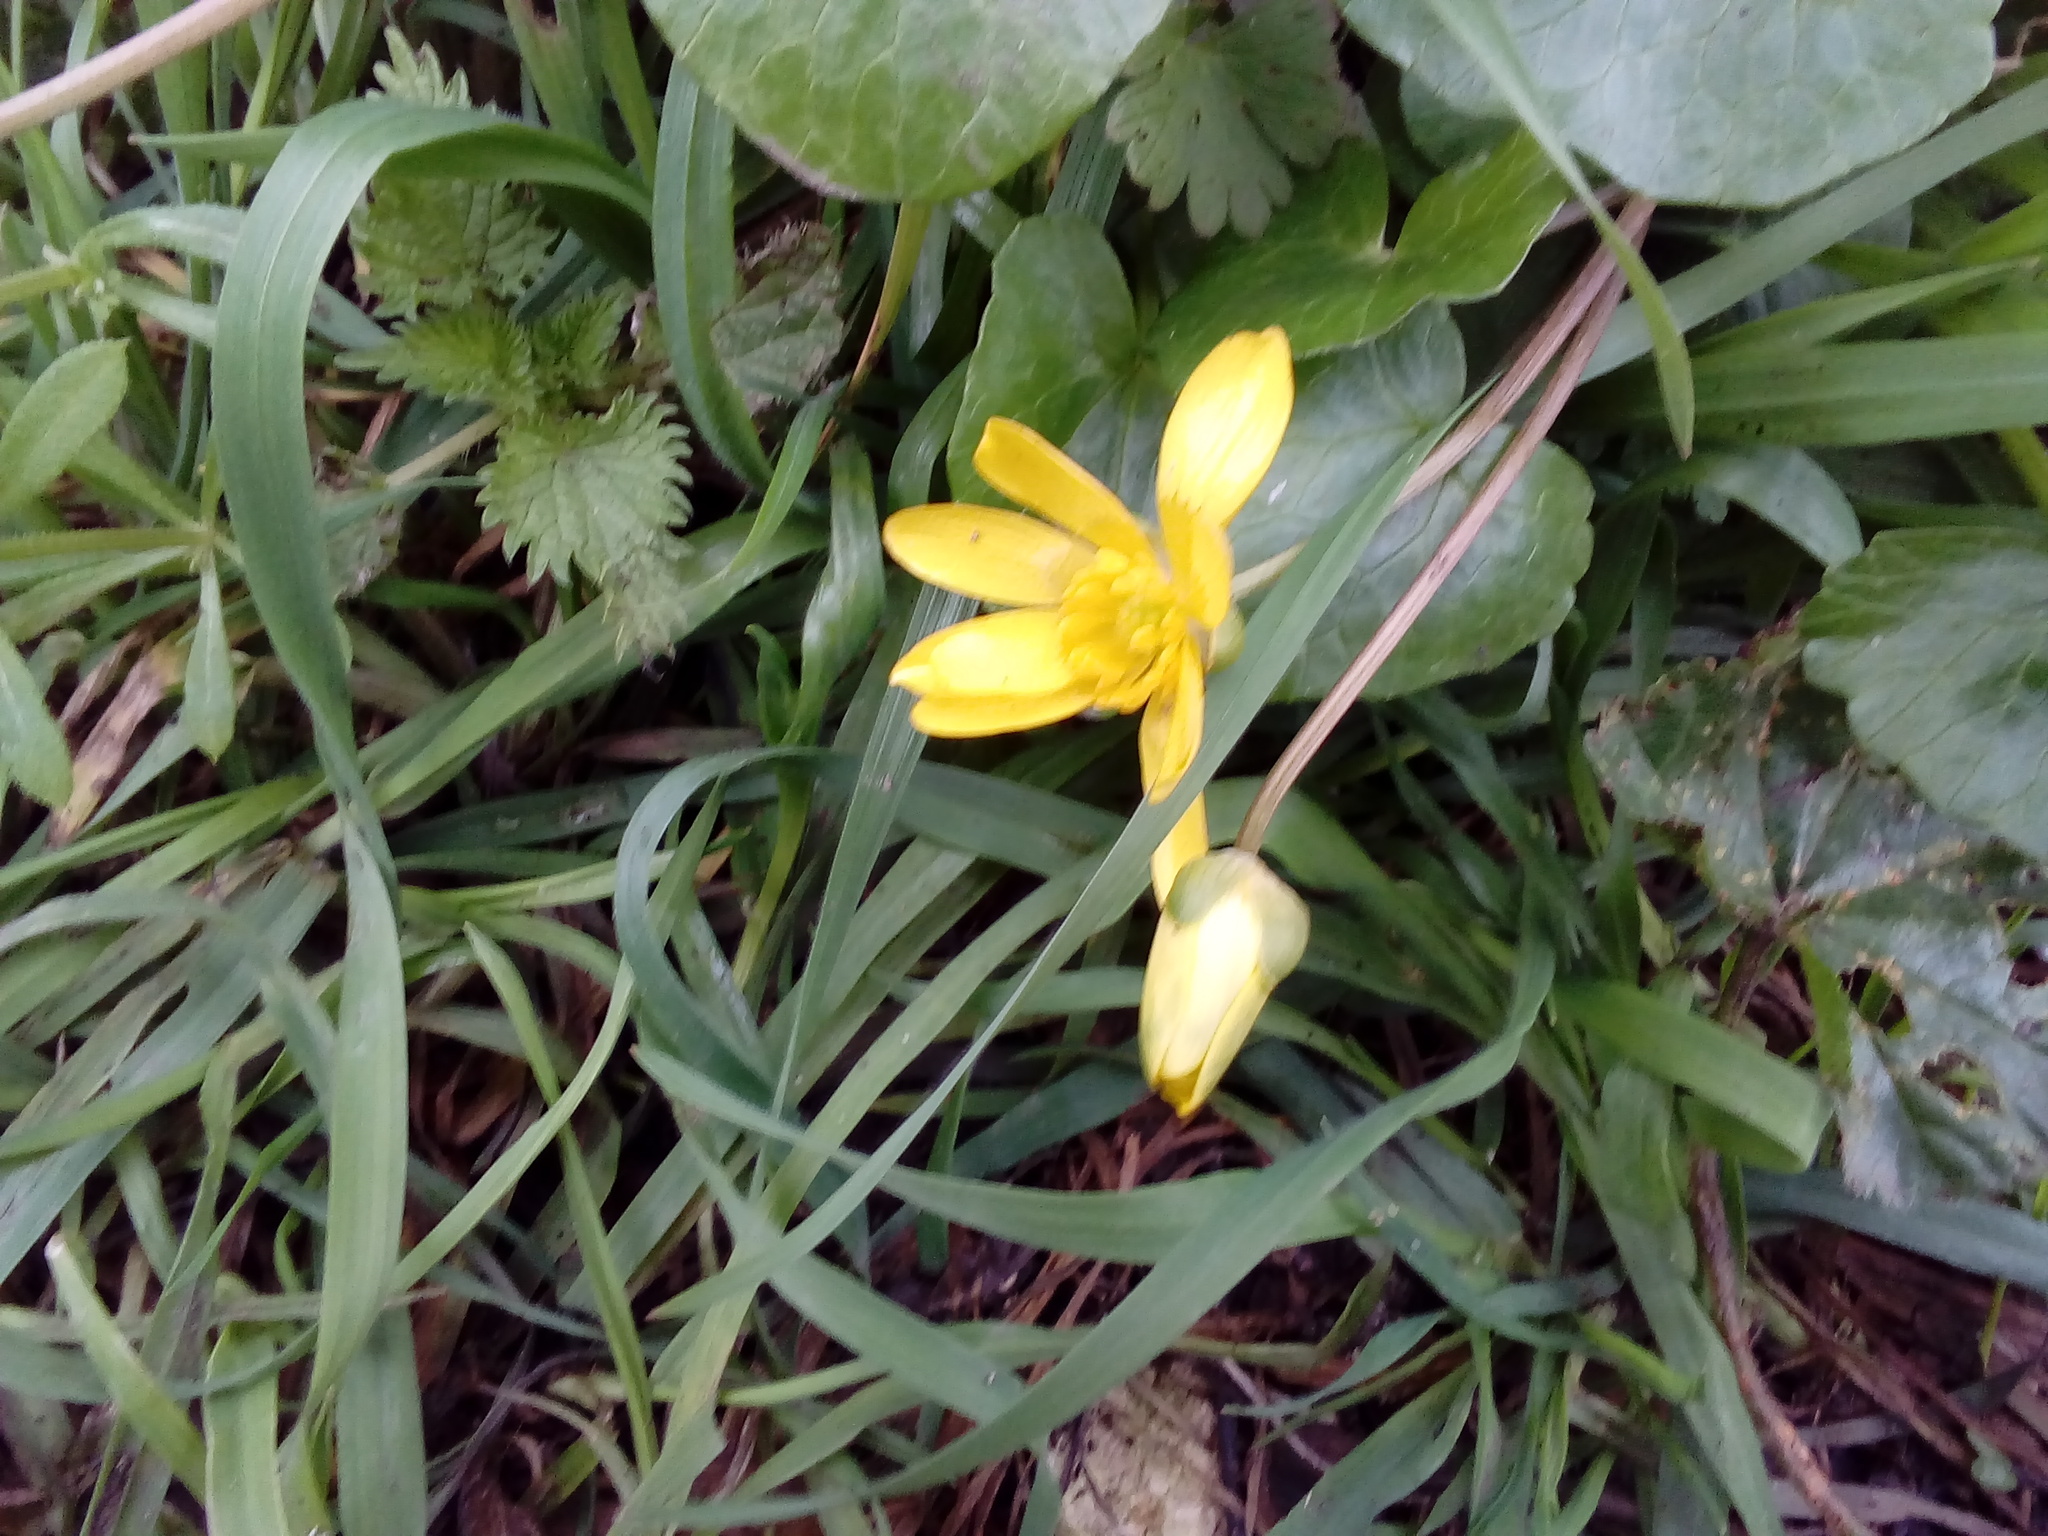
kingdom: Plantae
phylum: Tracheophyta
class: Magnoliopsida
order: Ranunculales
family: Ranunculaceae
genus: Ficaria
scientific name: Ficaria verna
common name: Lesser celandine
